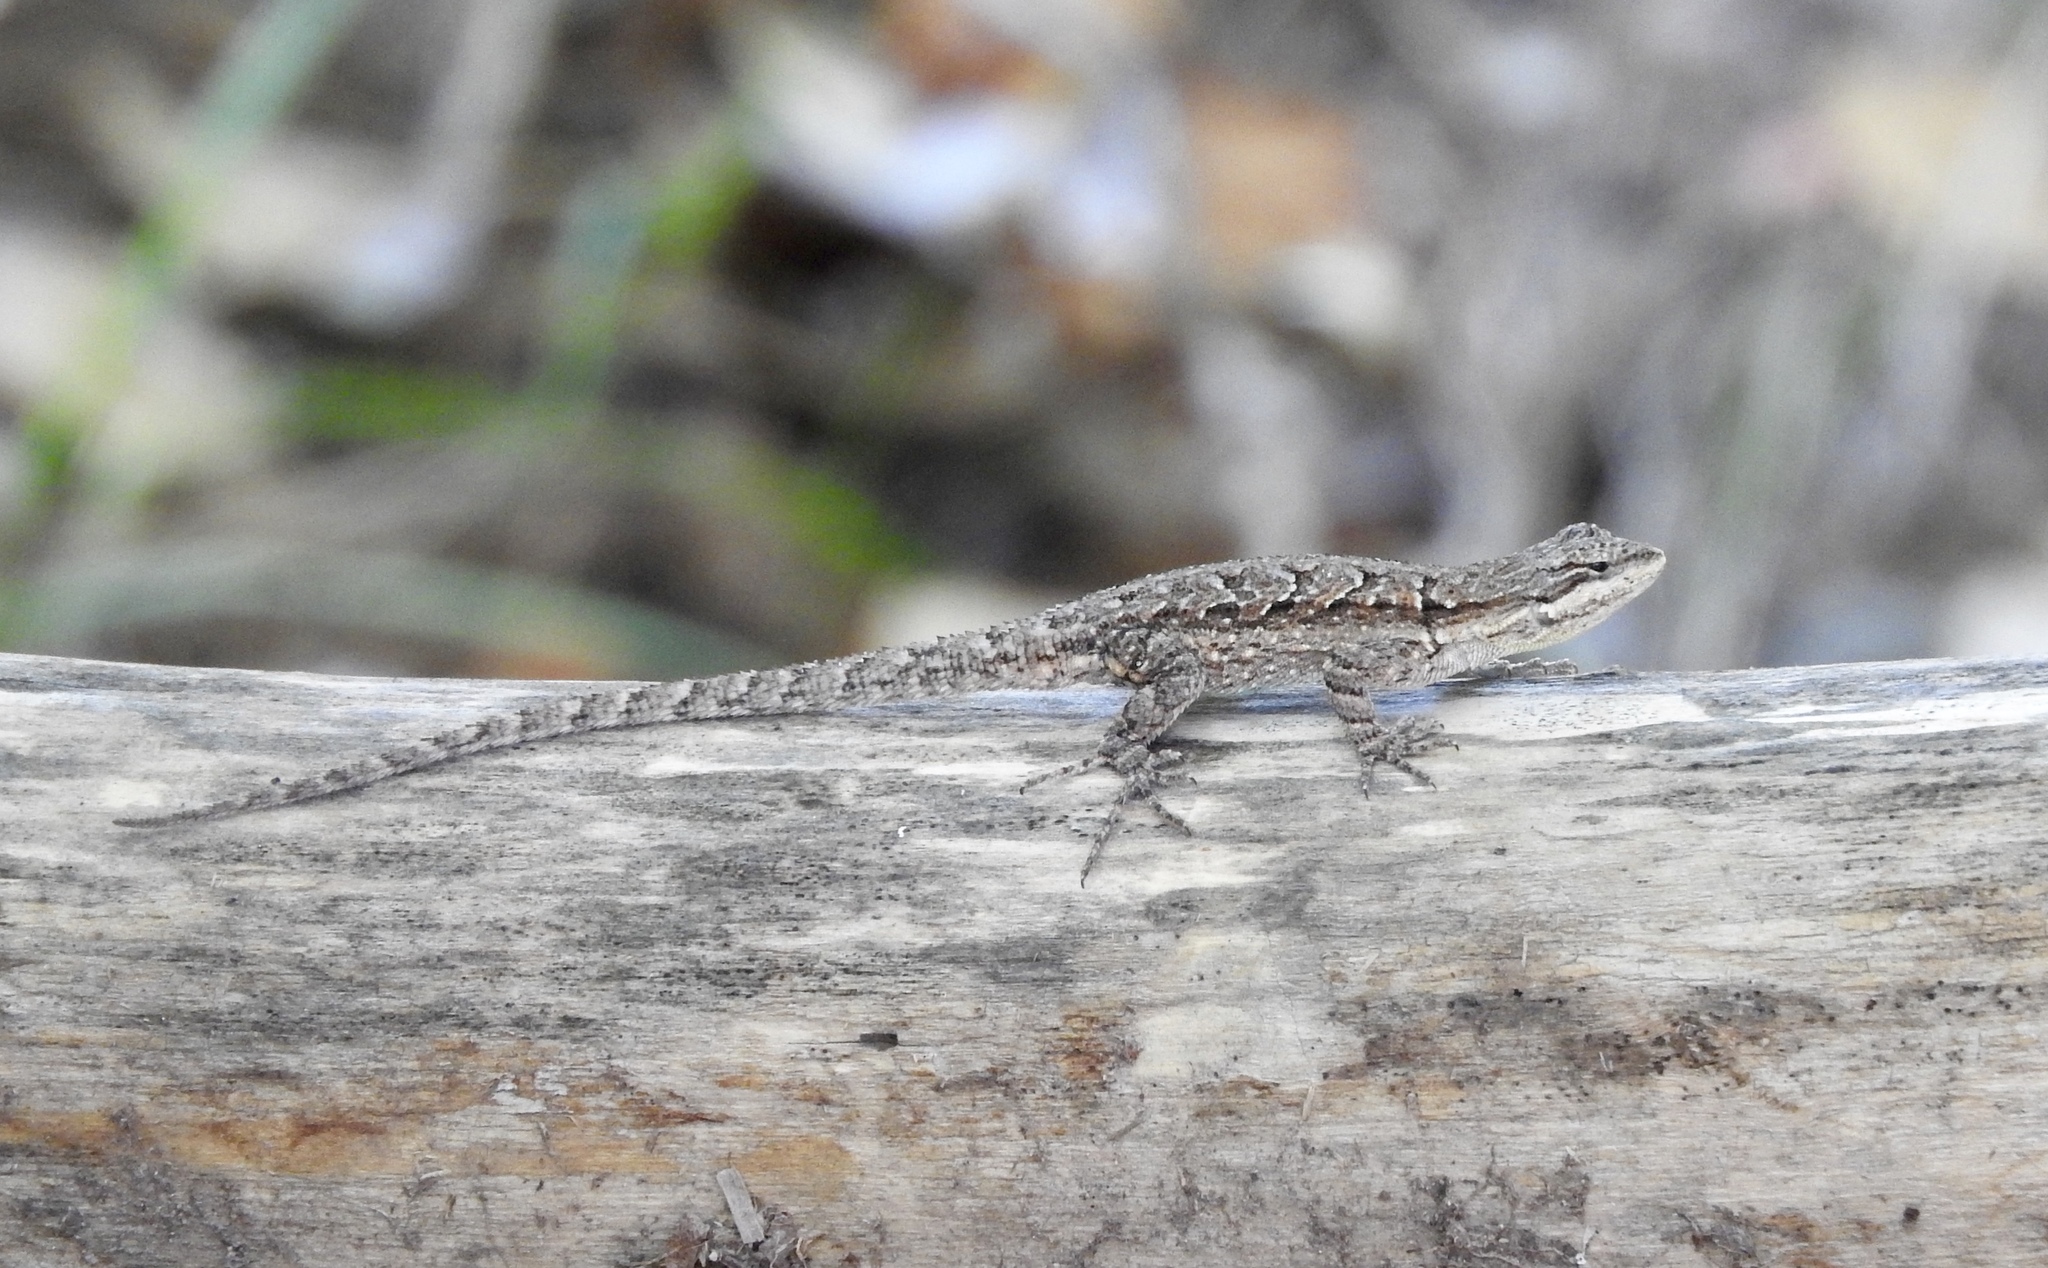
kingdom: Animalia
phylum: Chordata
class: Squamata
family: Phrynosomatidae
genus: Urosaurus
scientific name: Urosaurus ornatus
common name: Ornate tree lizard
